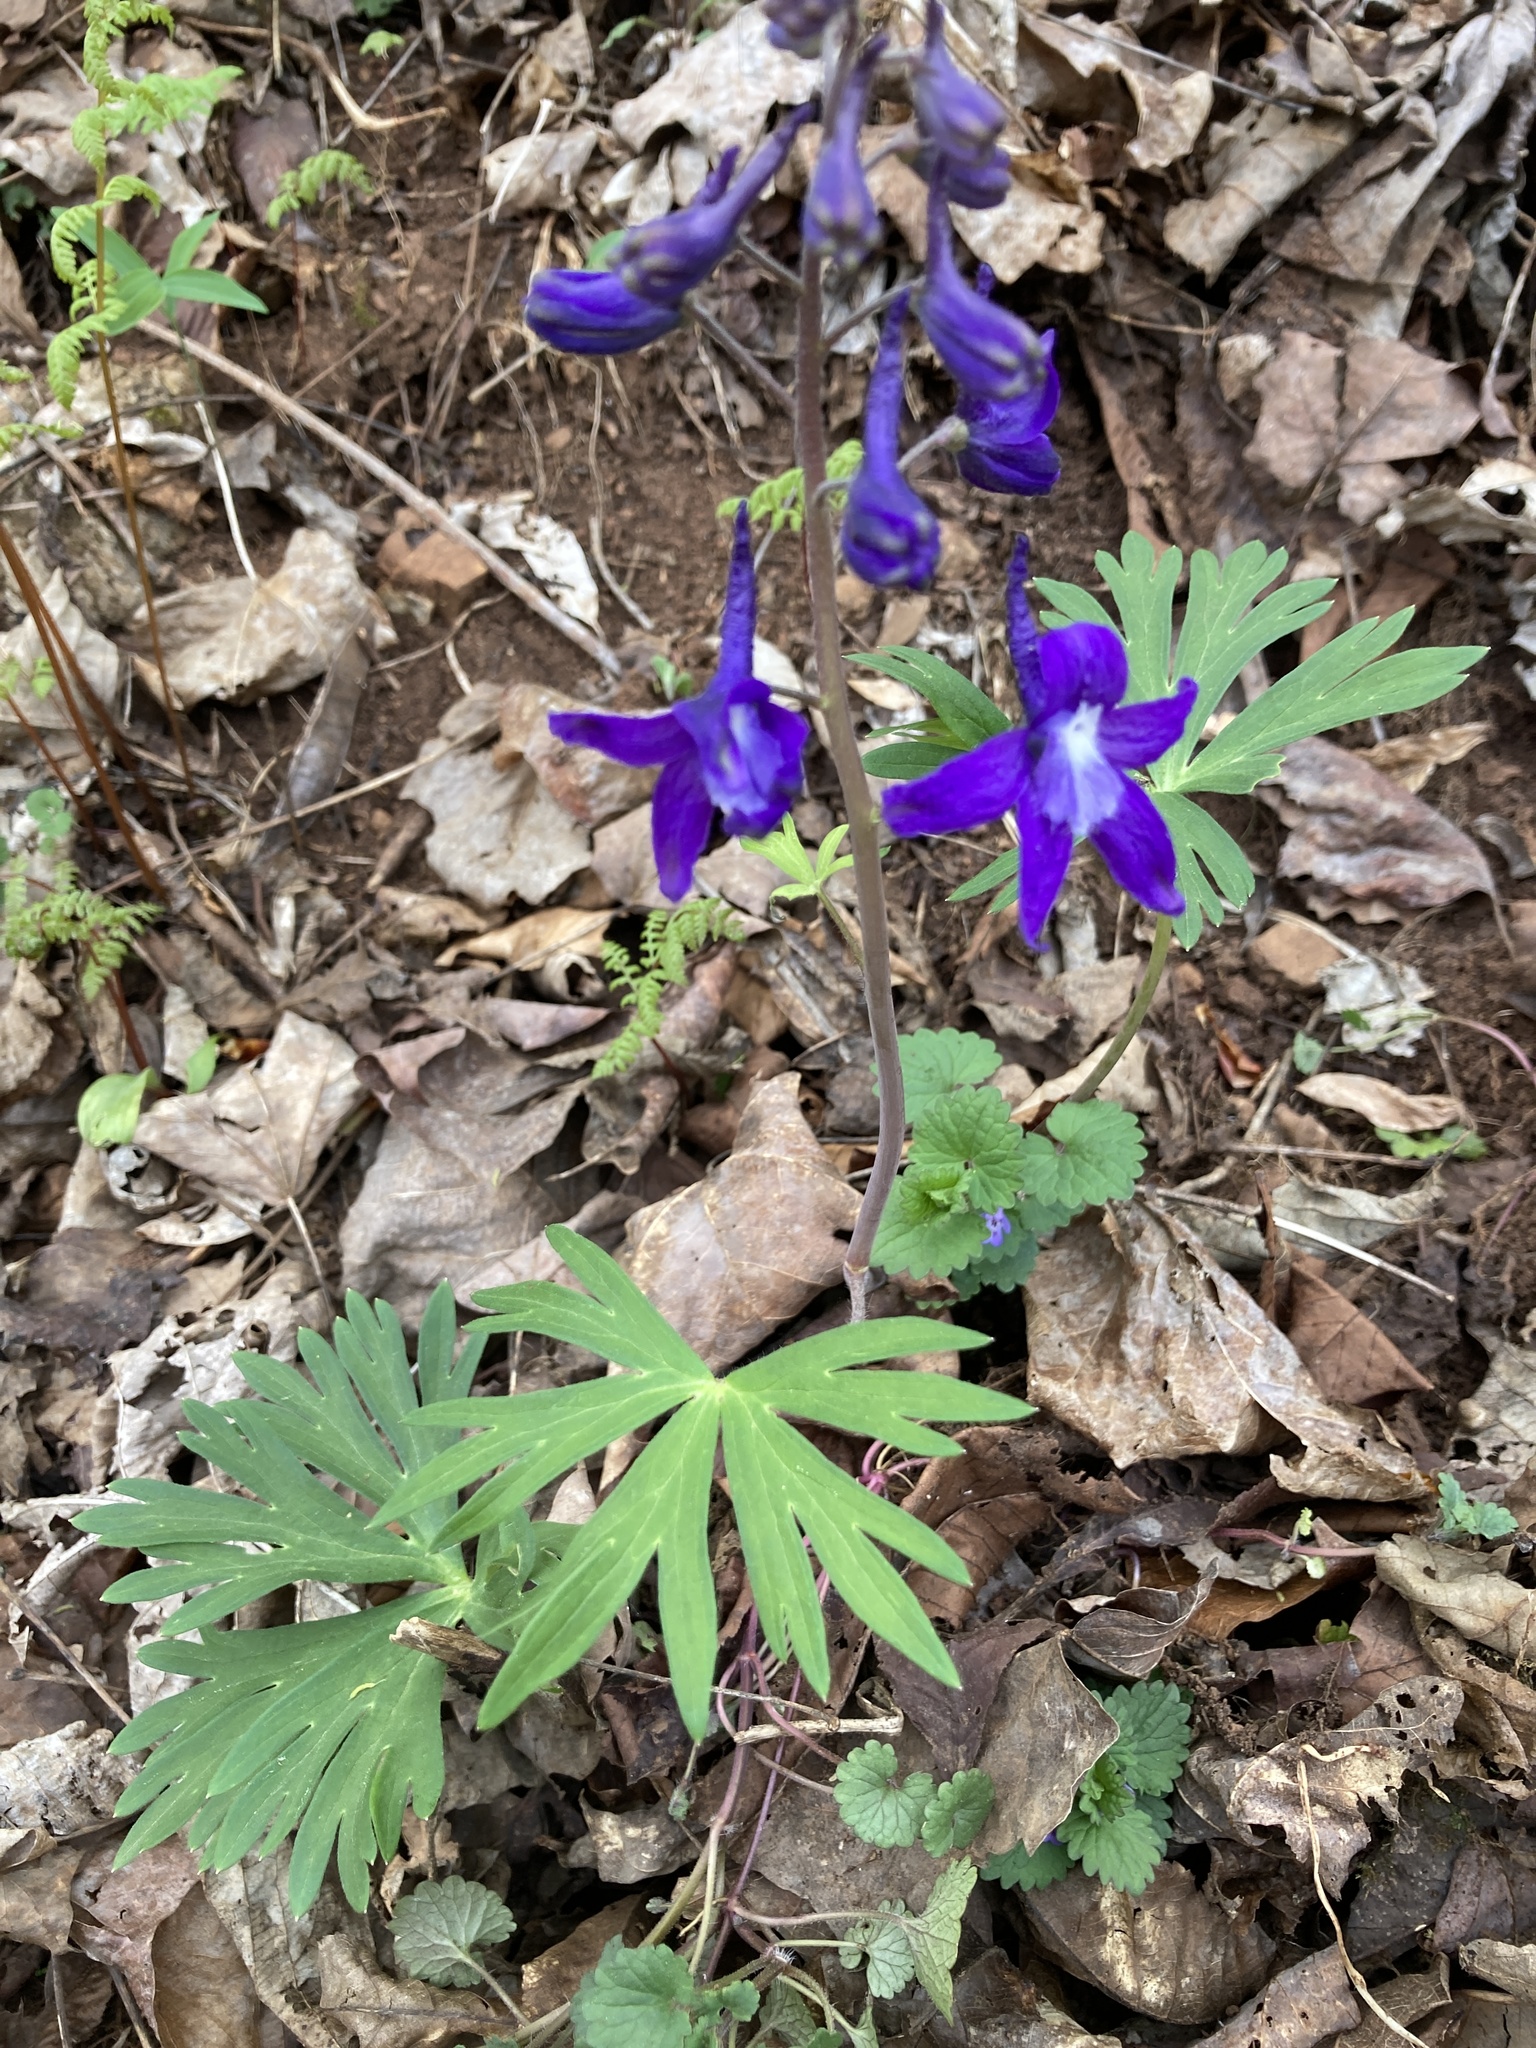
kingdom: Plantae
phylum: Tracheophyta
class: Magnoliopsida
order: Ranunculales
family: Ranunculaceae
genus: Delphinium
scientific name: Delphinium tricorne
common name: Dwarf larkspur
